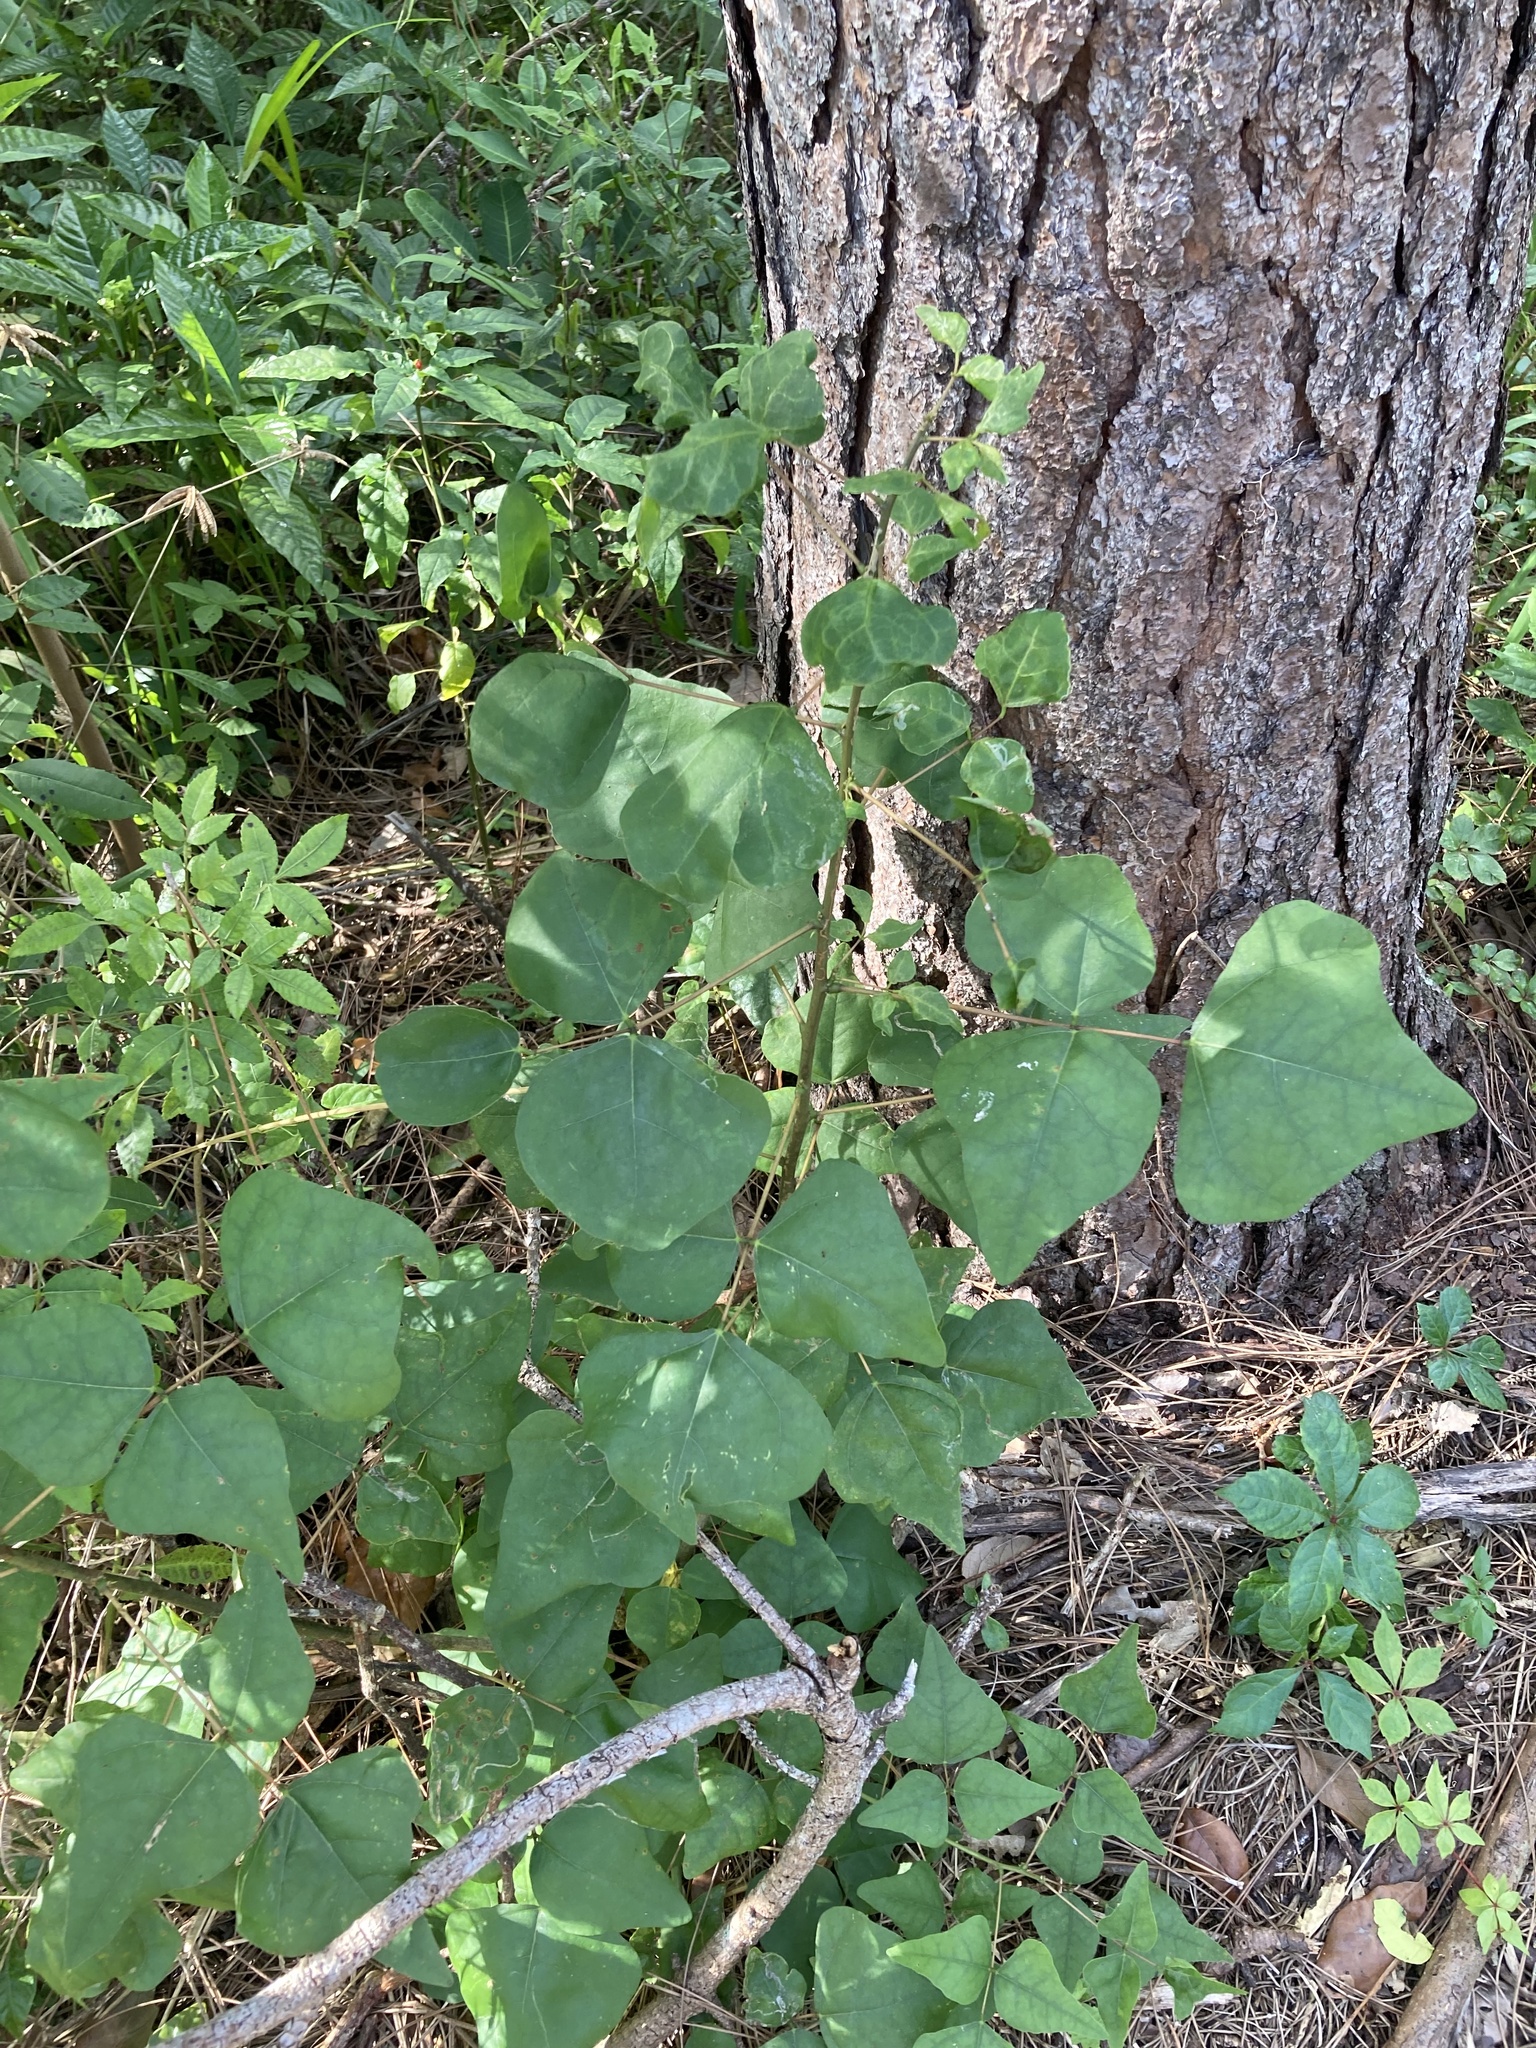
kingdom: Plantae
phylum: Tracheophyta
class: Magnoliopsida
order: Fabales
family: Fabaceae
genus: Erythrina
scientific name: Erythrina herbacea
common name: Coral-bean
